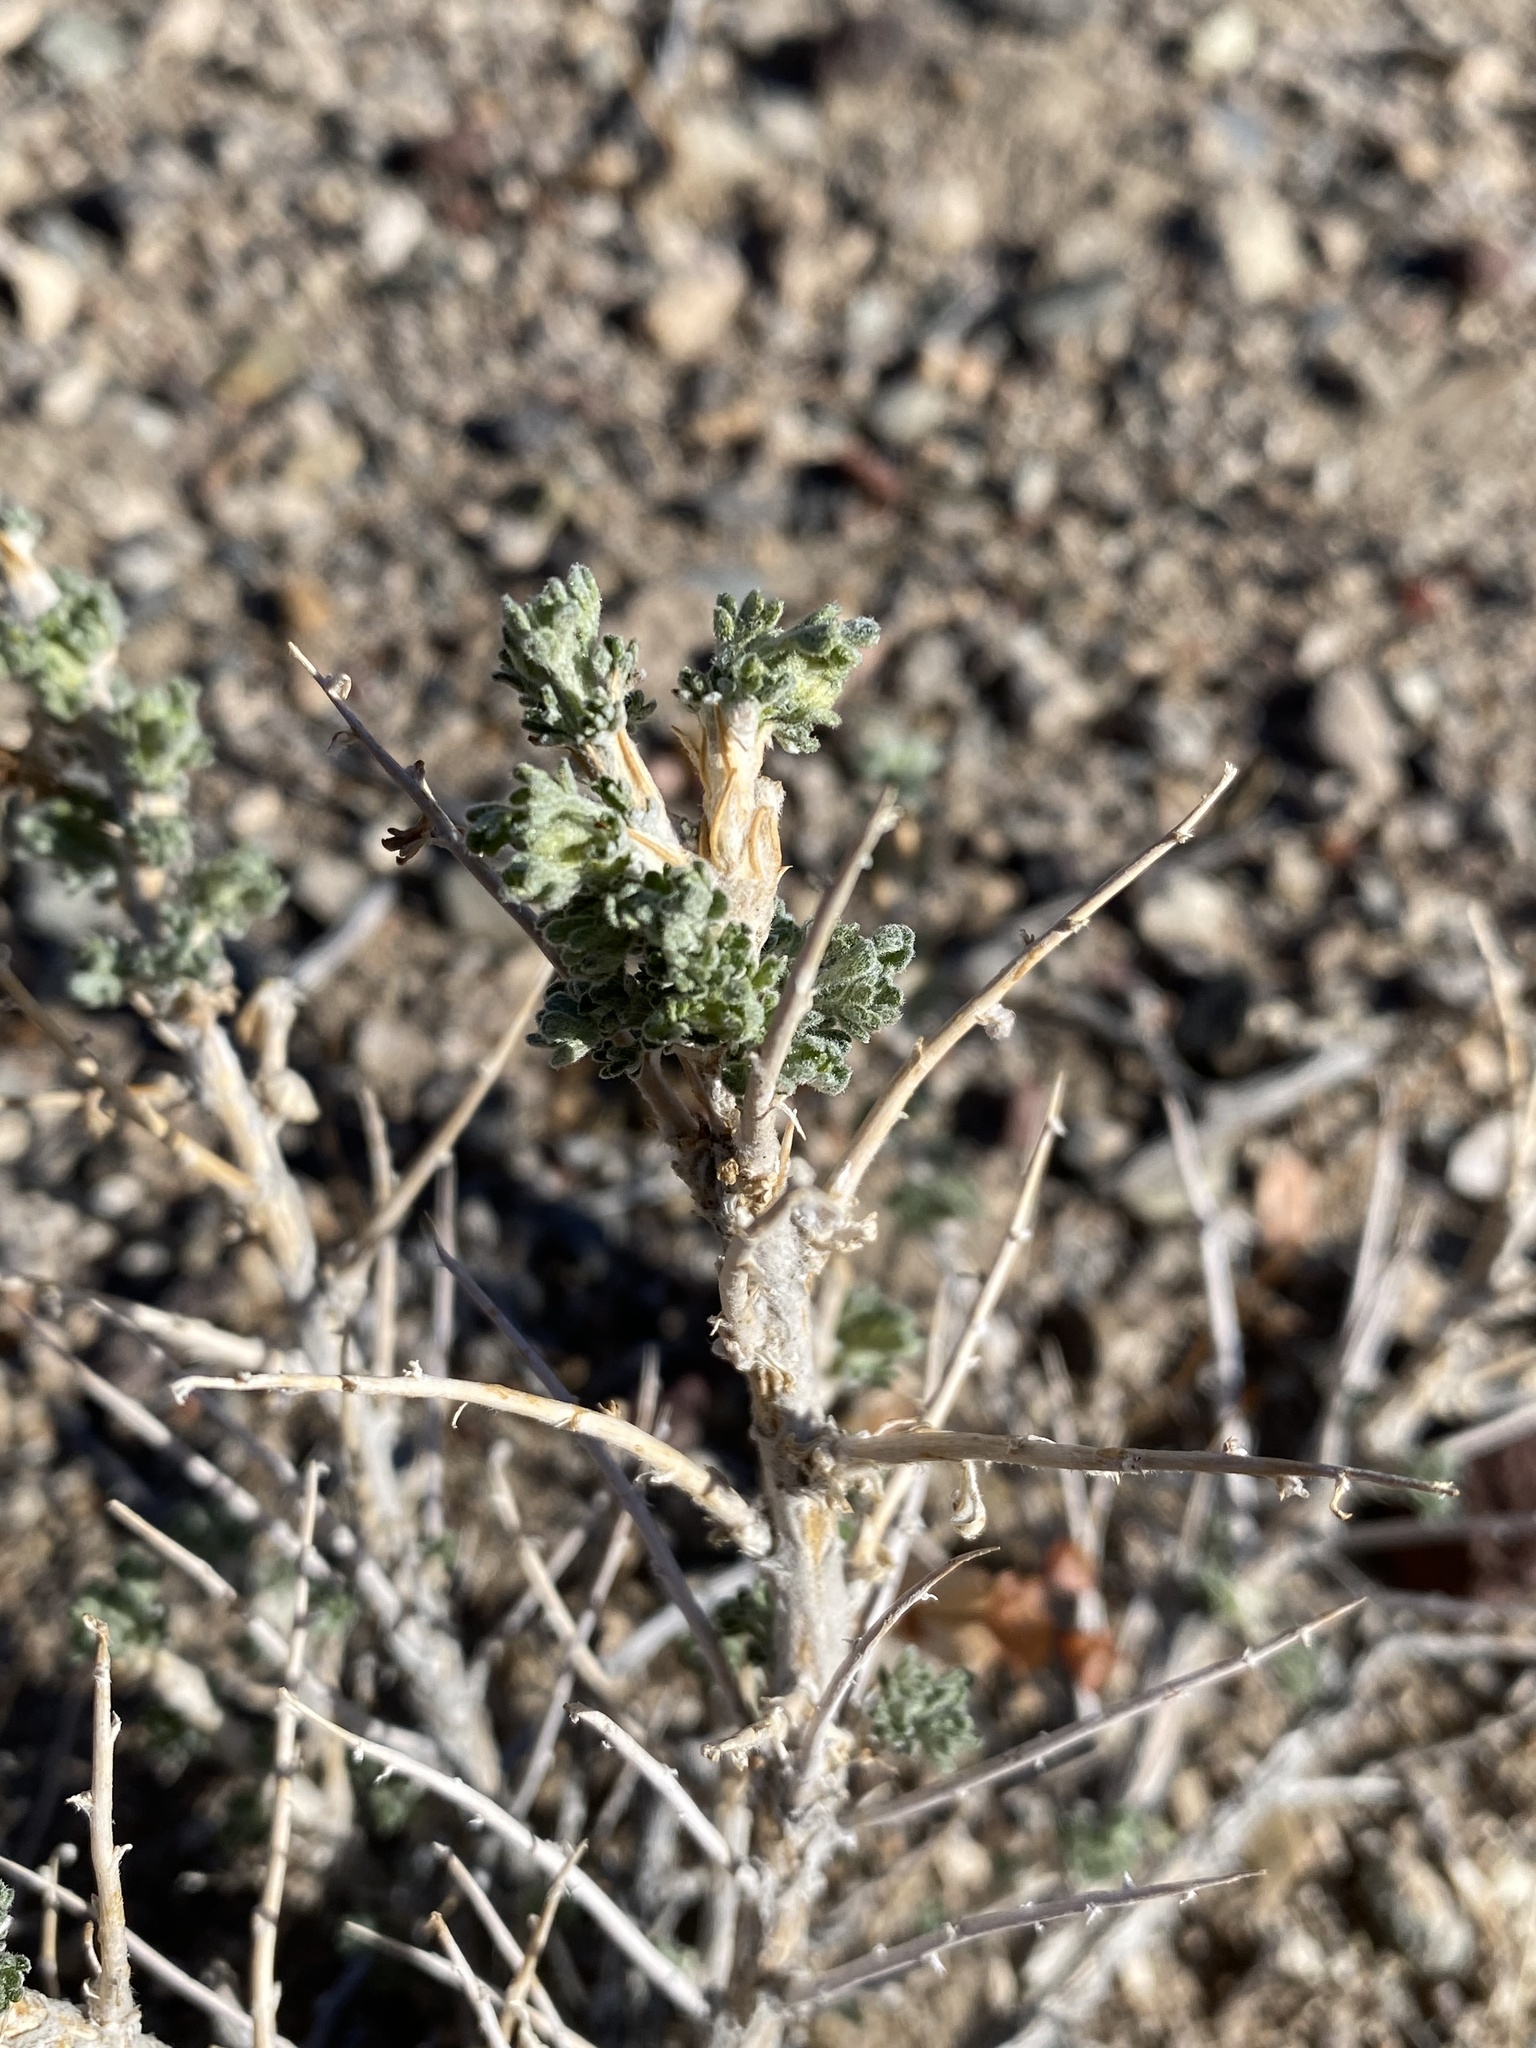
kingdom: Plantae
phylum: Tracheophyta
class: Magnoliopsida
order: Asterales
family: Asteraceae
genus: Artemisia
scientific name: Artemisia spinescens
